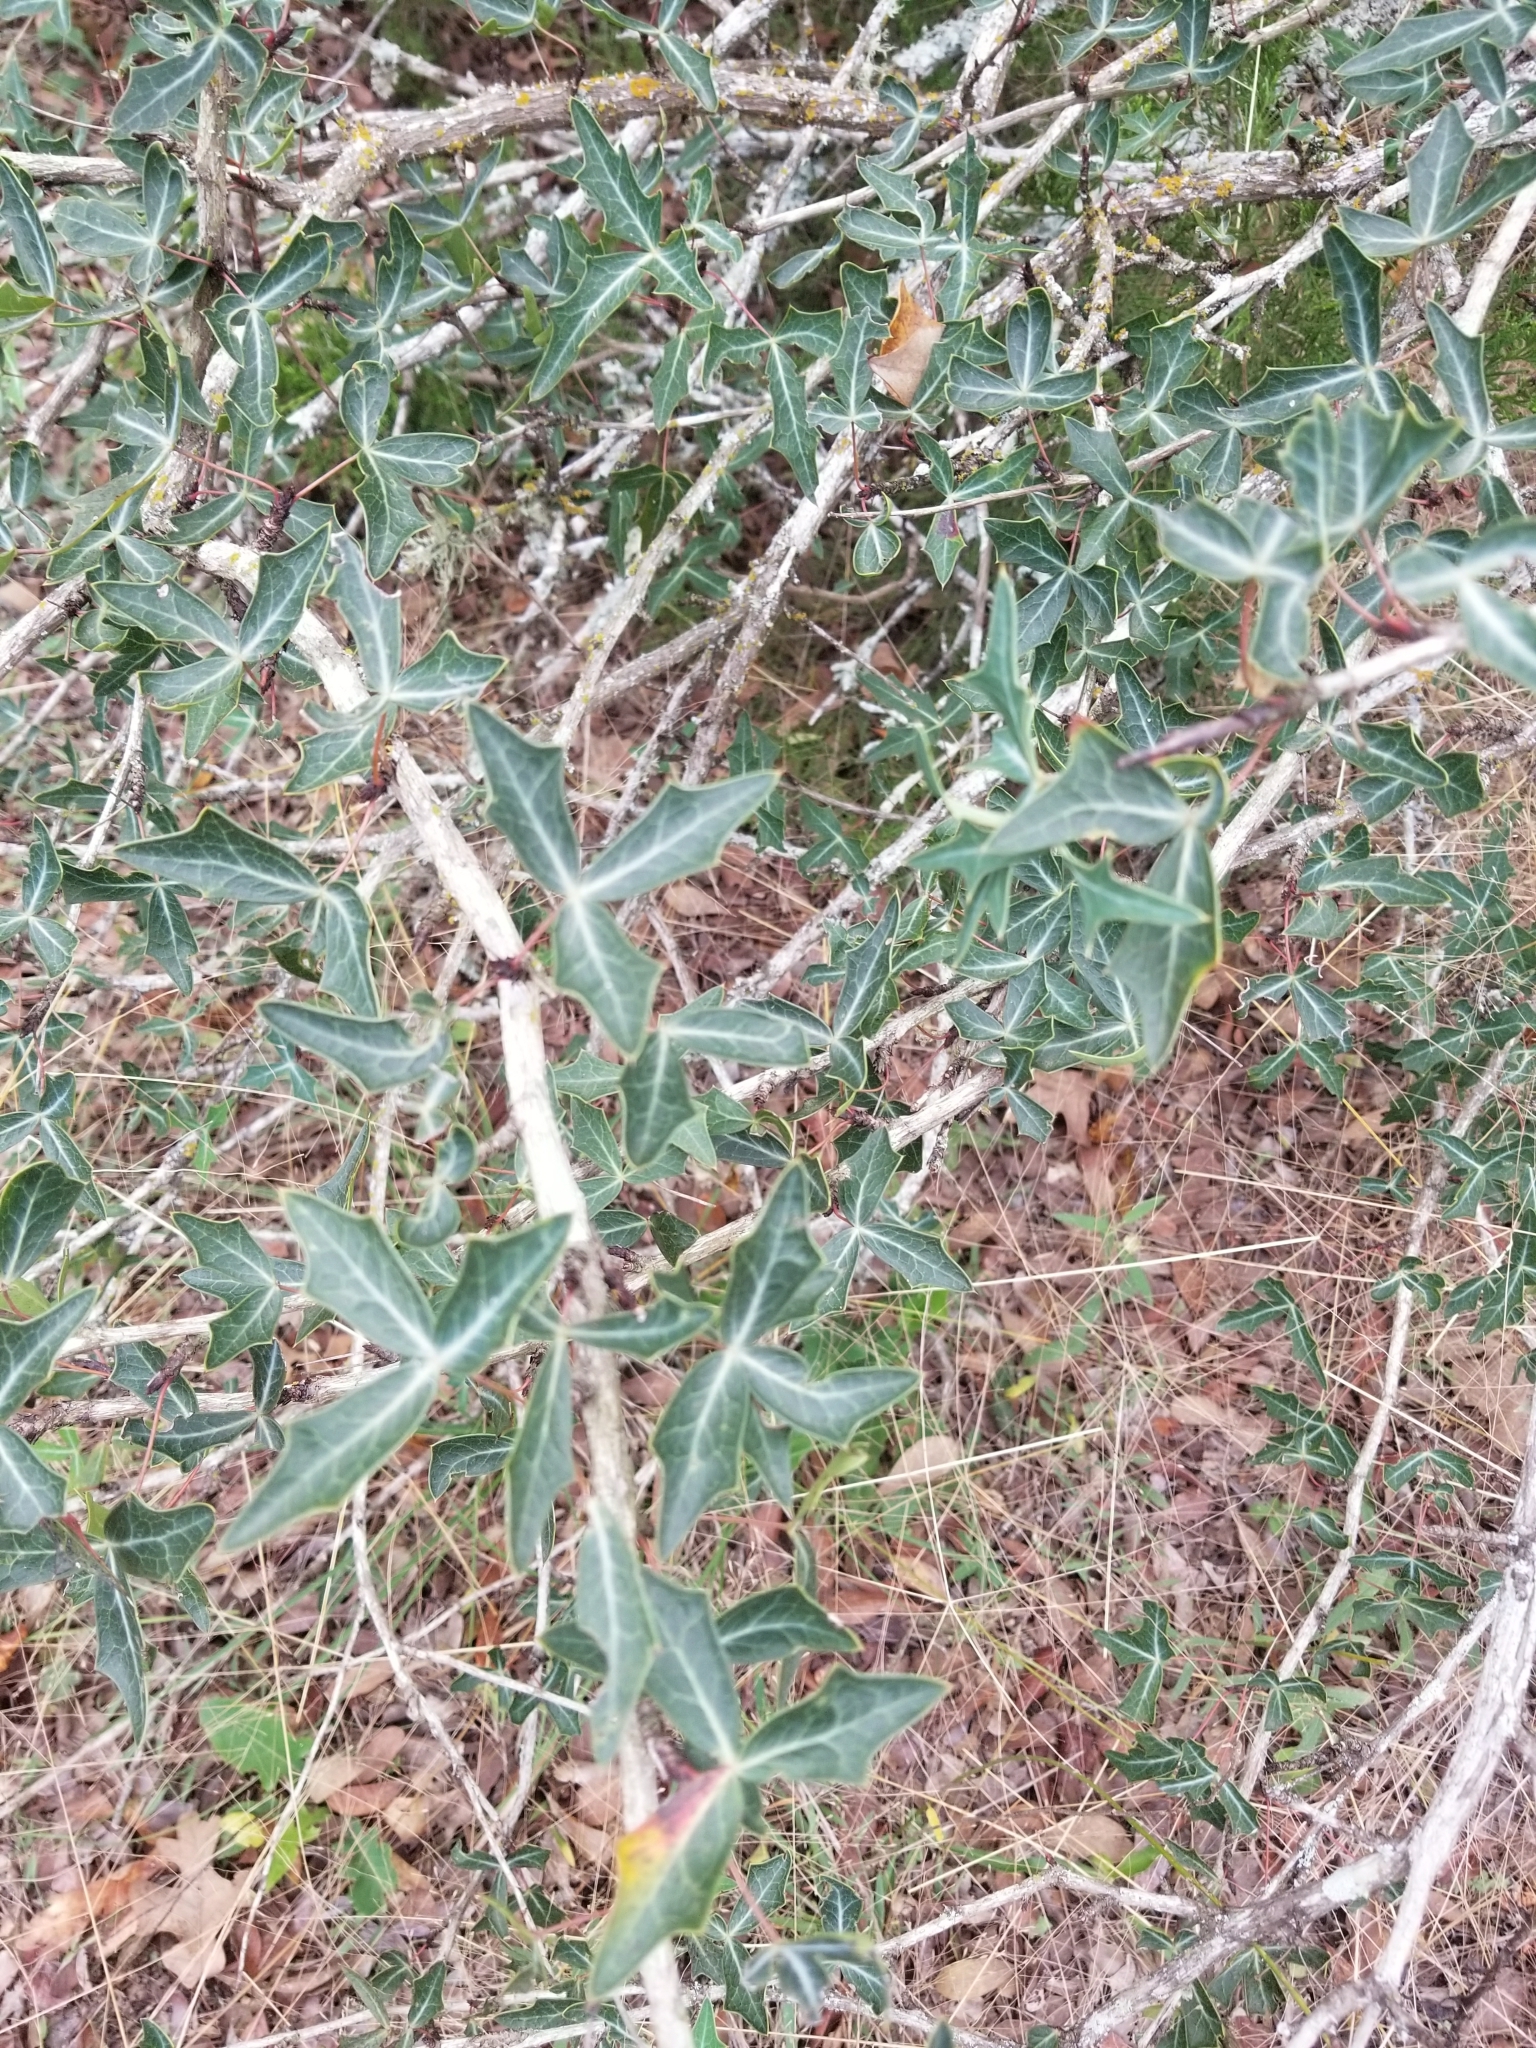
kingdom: Plantae
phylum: Tracheophyta
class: Magnoliopsida
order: Ranunculales
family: Berberidaceae
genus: Alloberberis
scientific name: Alloberberis trifoliolata
